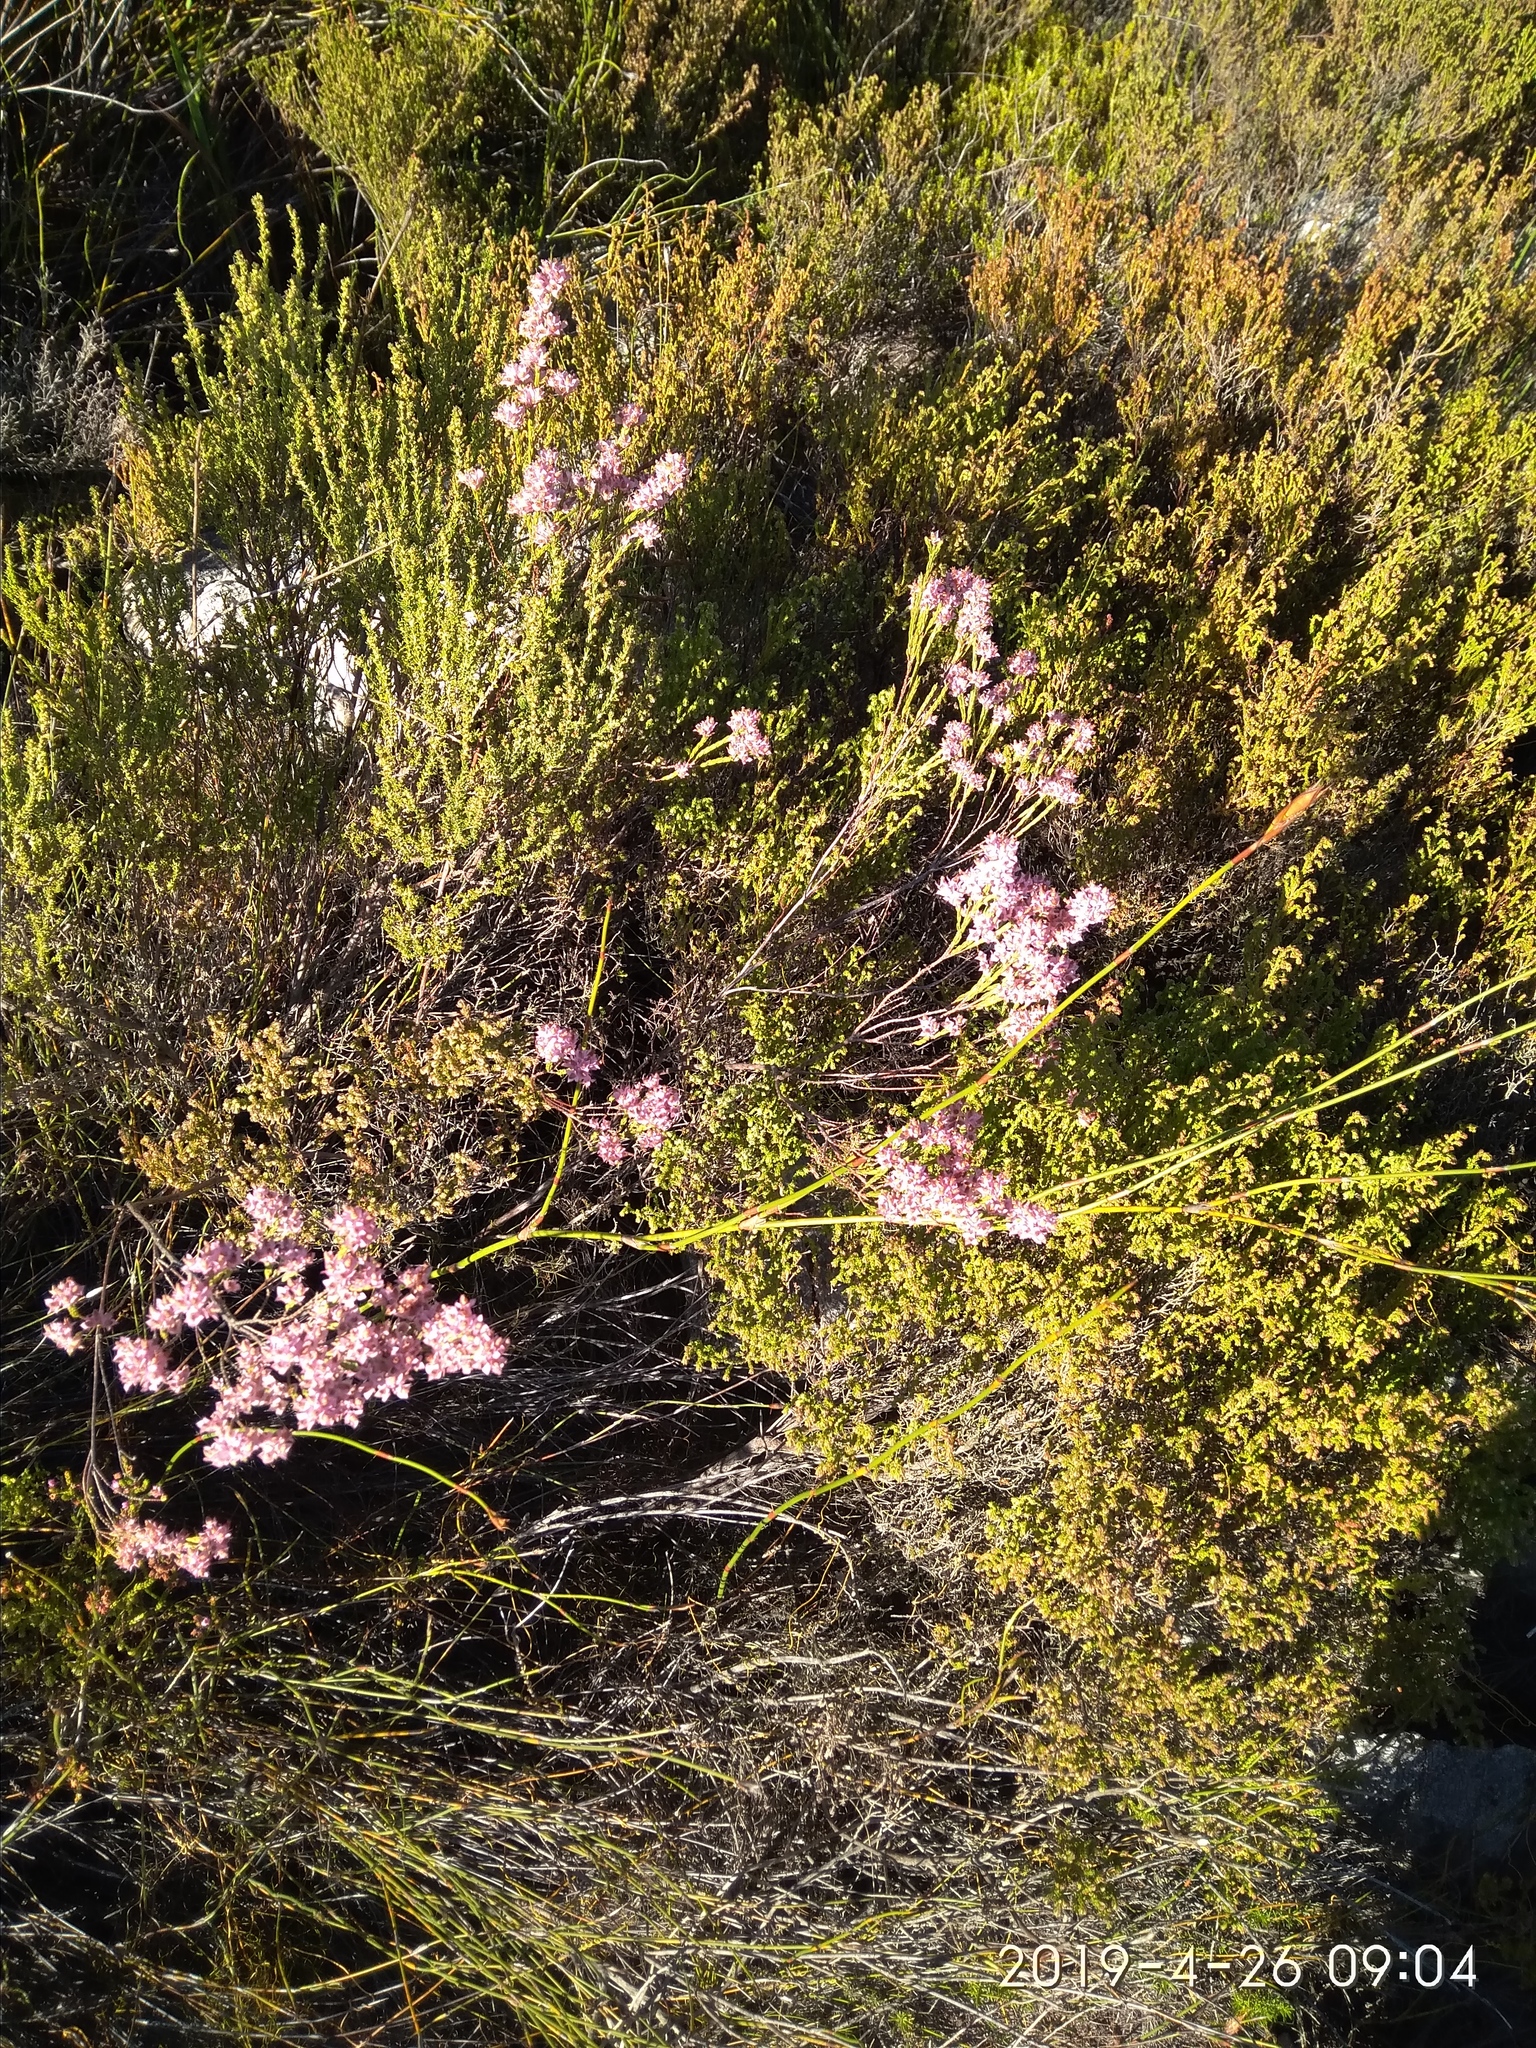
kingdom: Plantae
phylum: Tracheophyta
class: Magnoliopsida
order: Ericales
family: Ericaceae
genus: Erica
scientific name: Erica taxifolia
